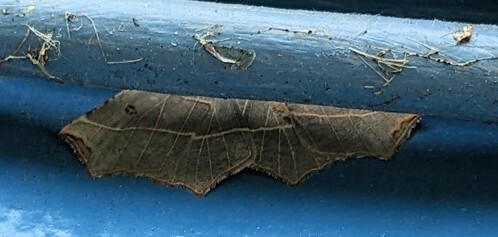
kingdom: Animalia
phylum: Arthropoda
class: Insecta
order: Lepidoptera
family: Geometridae
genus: Metanema
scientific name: Metanema inatomaria
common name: Pale metanema
